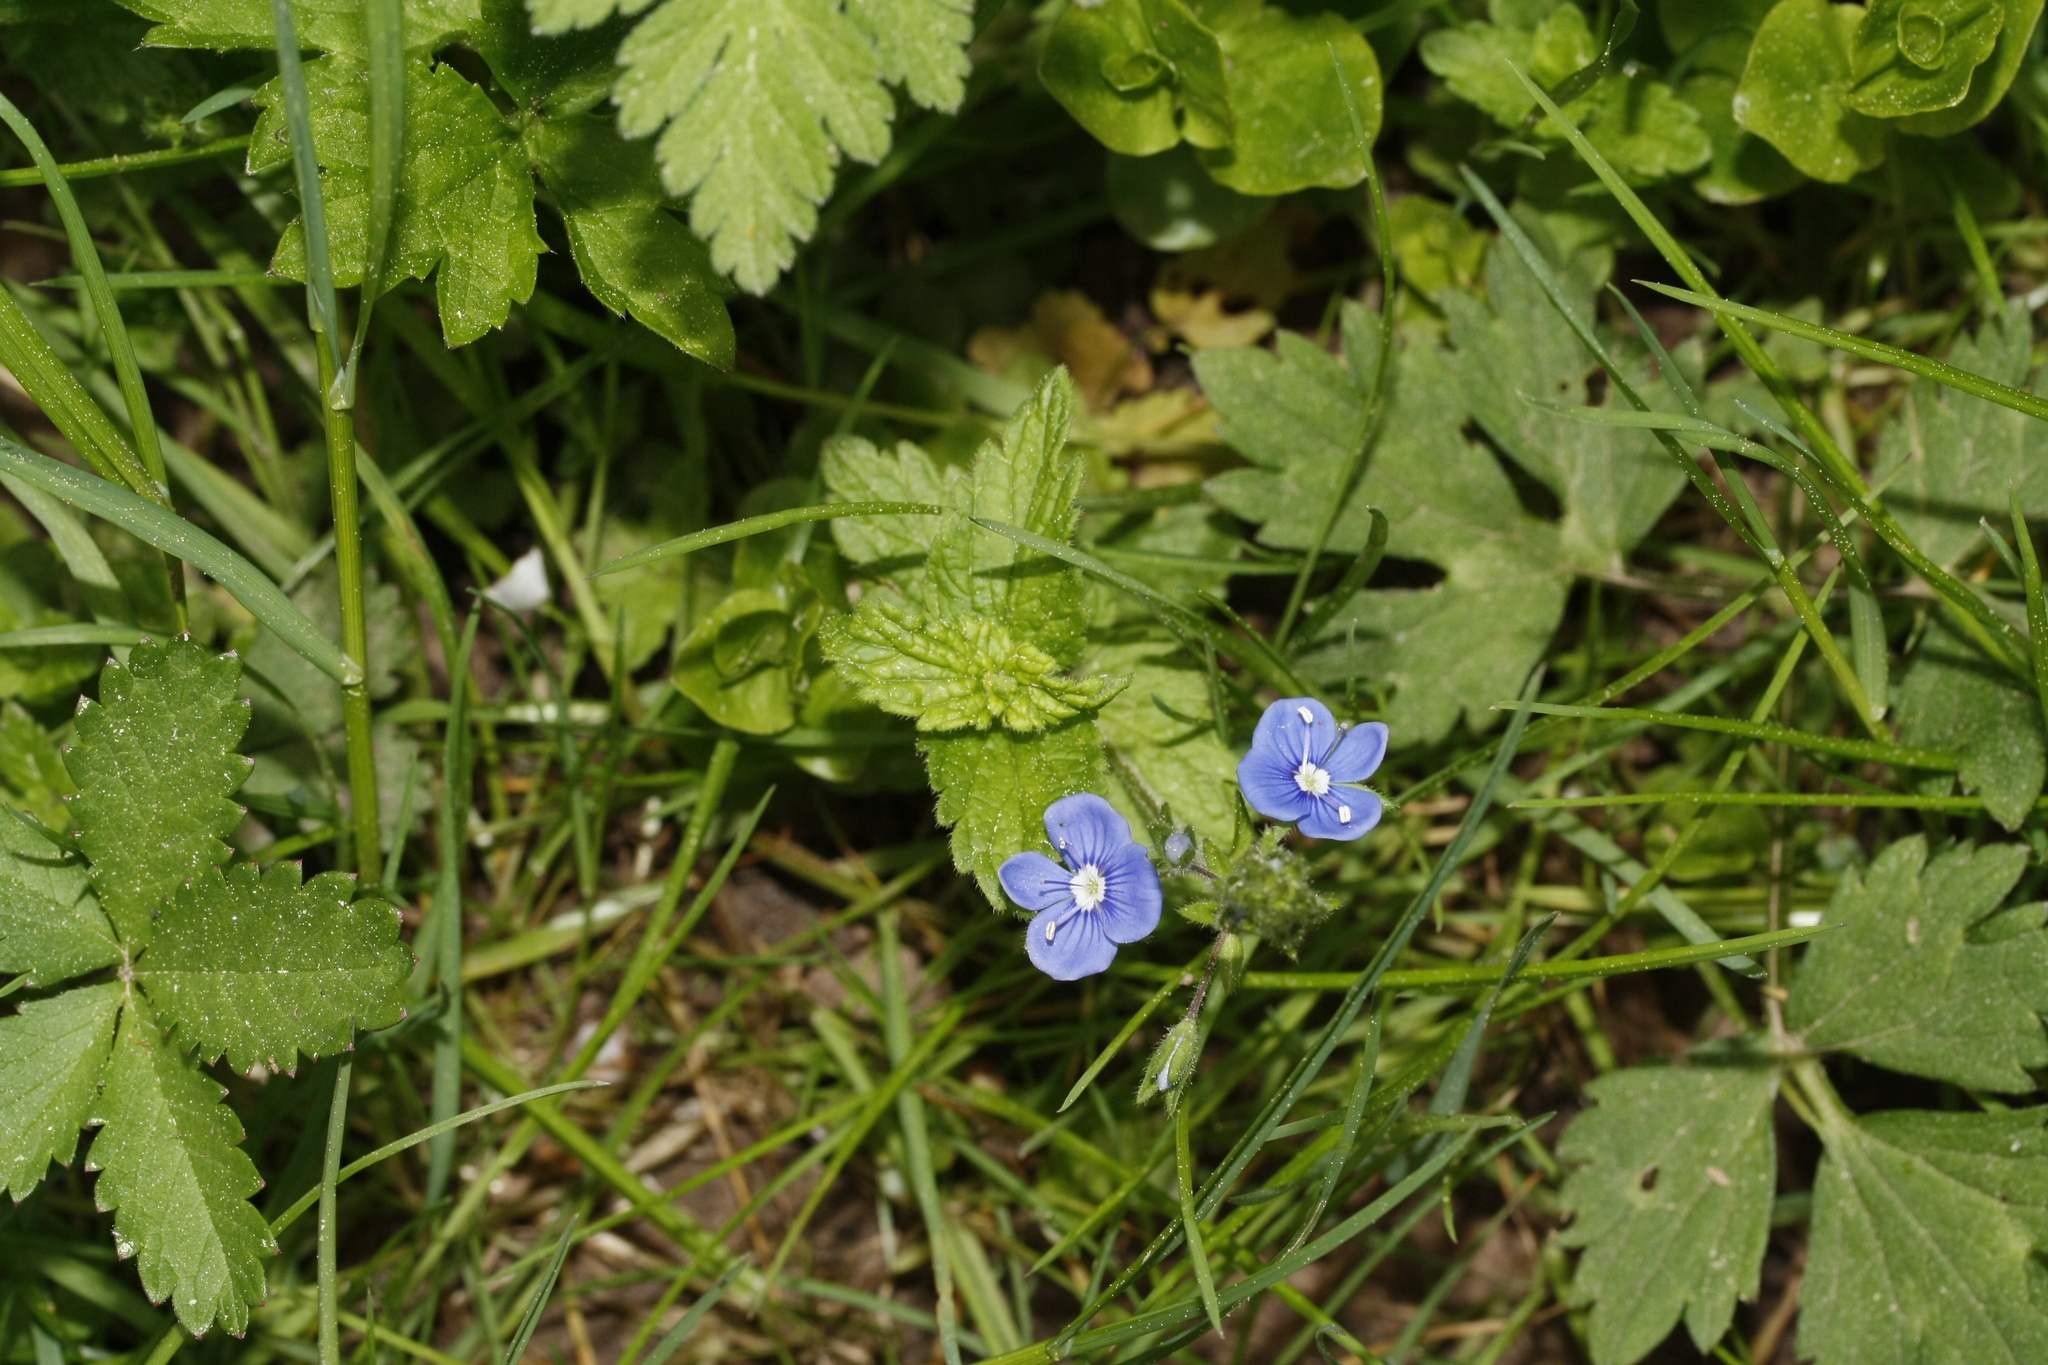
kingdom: Plantae
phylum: Tracheophyta
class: Magnoliopsida
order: Lamiales
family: Plantaginaceae
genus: Veronica
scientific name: Veronica chamaedrys
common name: Germander speedwell
